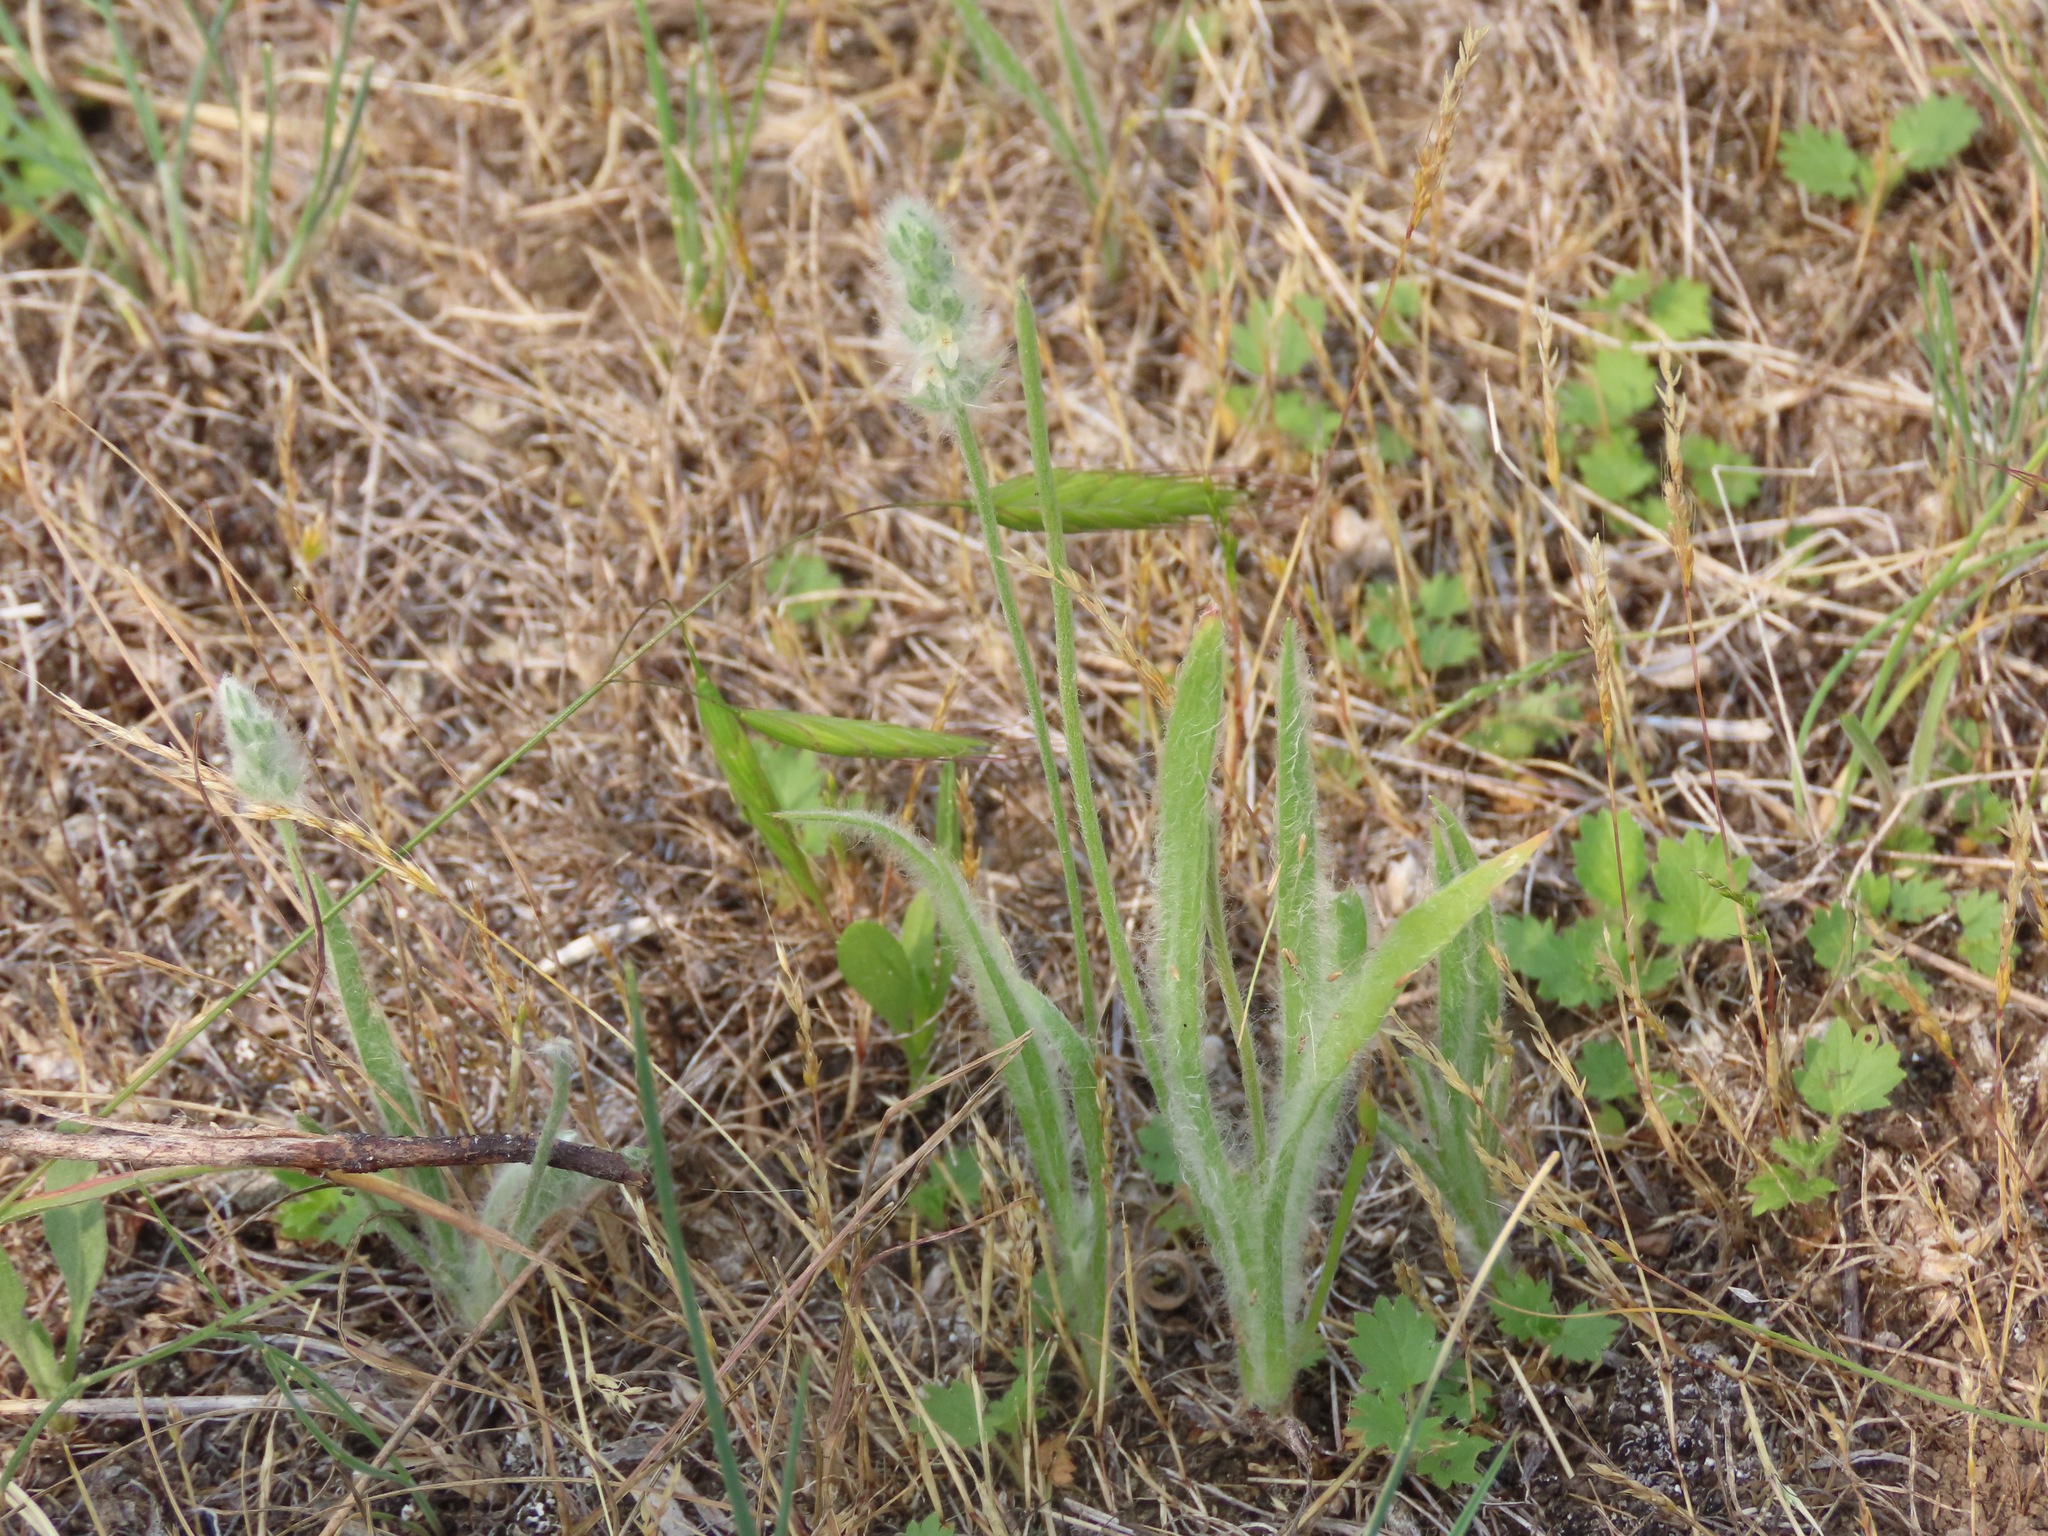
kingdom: Plantae
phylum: Tracheophyta
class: Magnoliopsida
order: Lamiales
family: Plantaginaceae
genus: Plantago
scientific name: Plantago patagonica
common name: Patagonia indian-wheat
